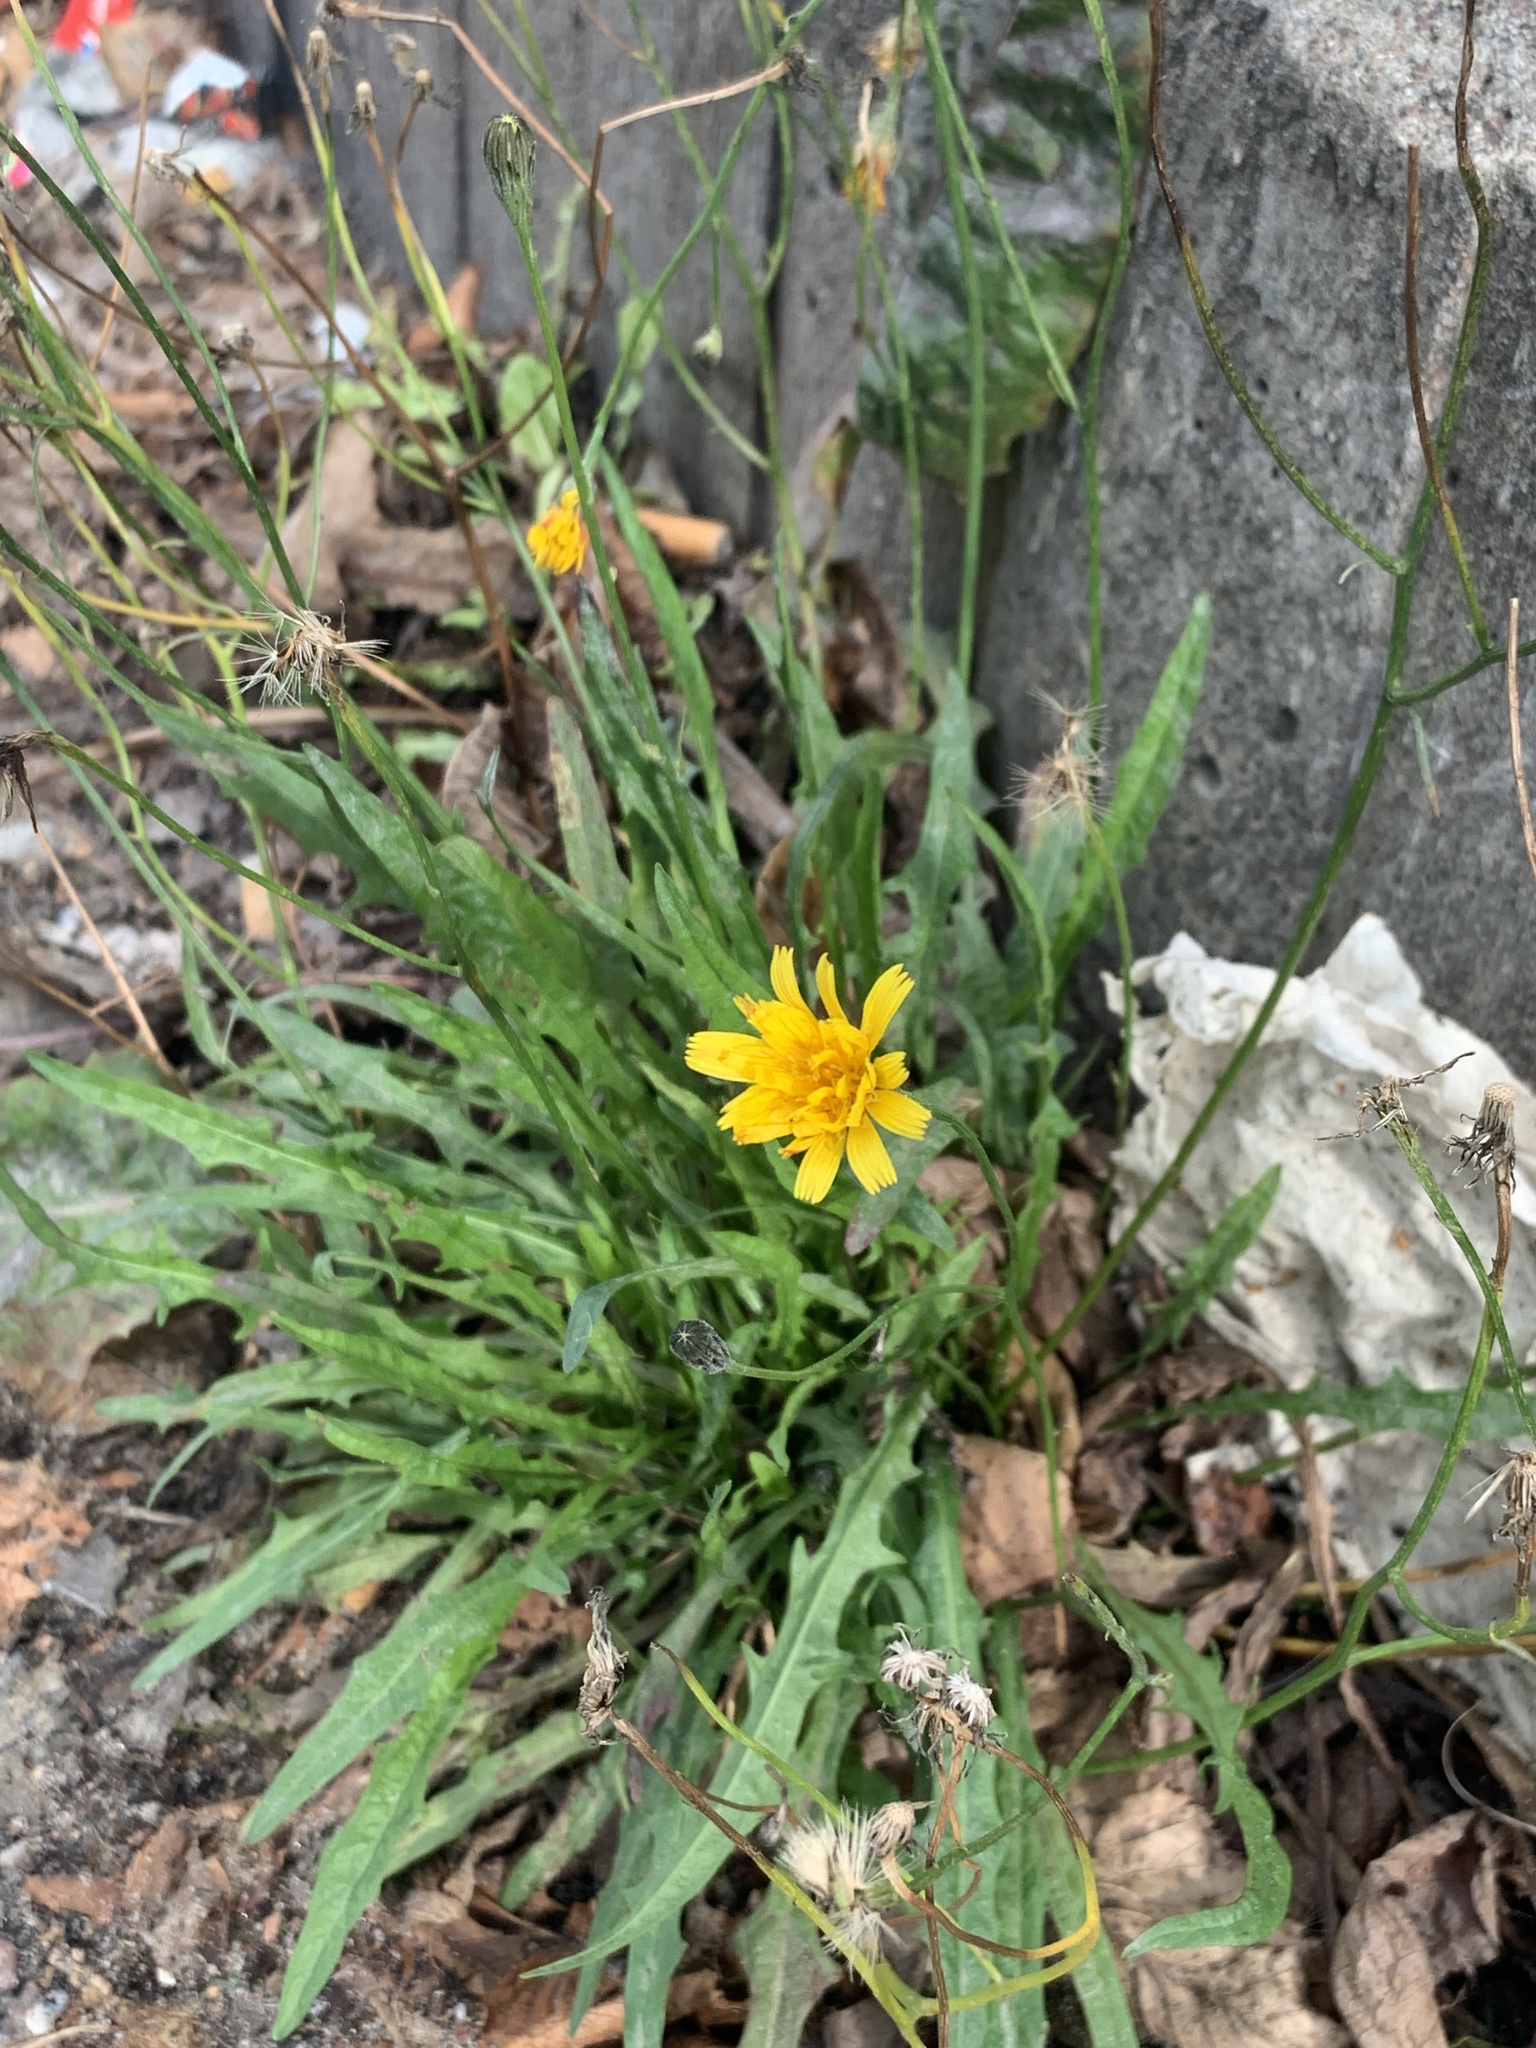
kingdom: Plantae
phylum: Tracheophyta
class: Magnoliopsida
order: Asterales
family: Asteraceae
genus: Scorzoneroides
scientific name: Scorzoneroides autumnalis
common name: Autumn hawkbit
